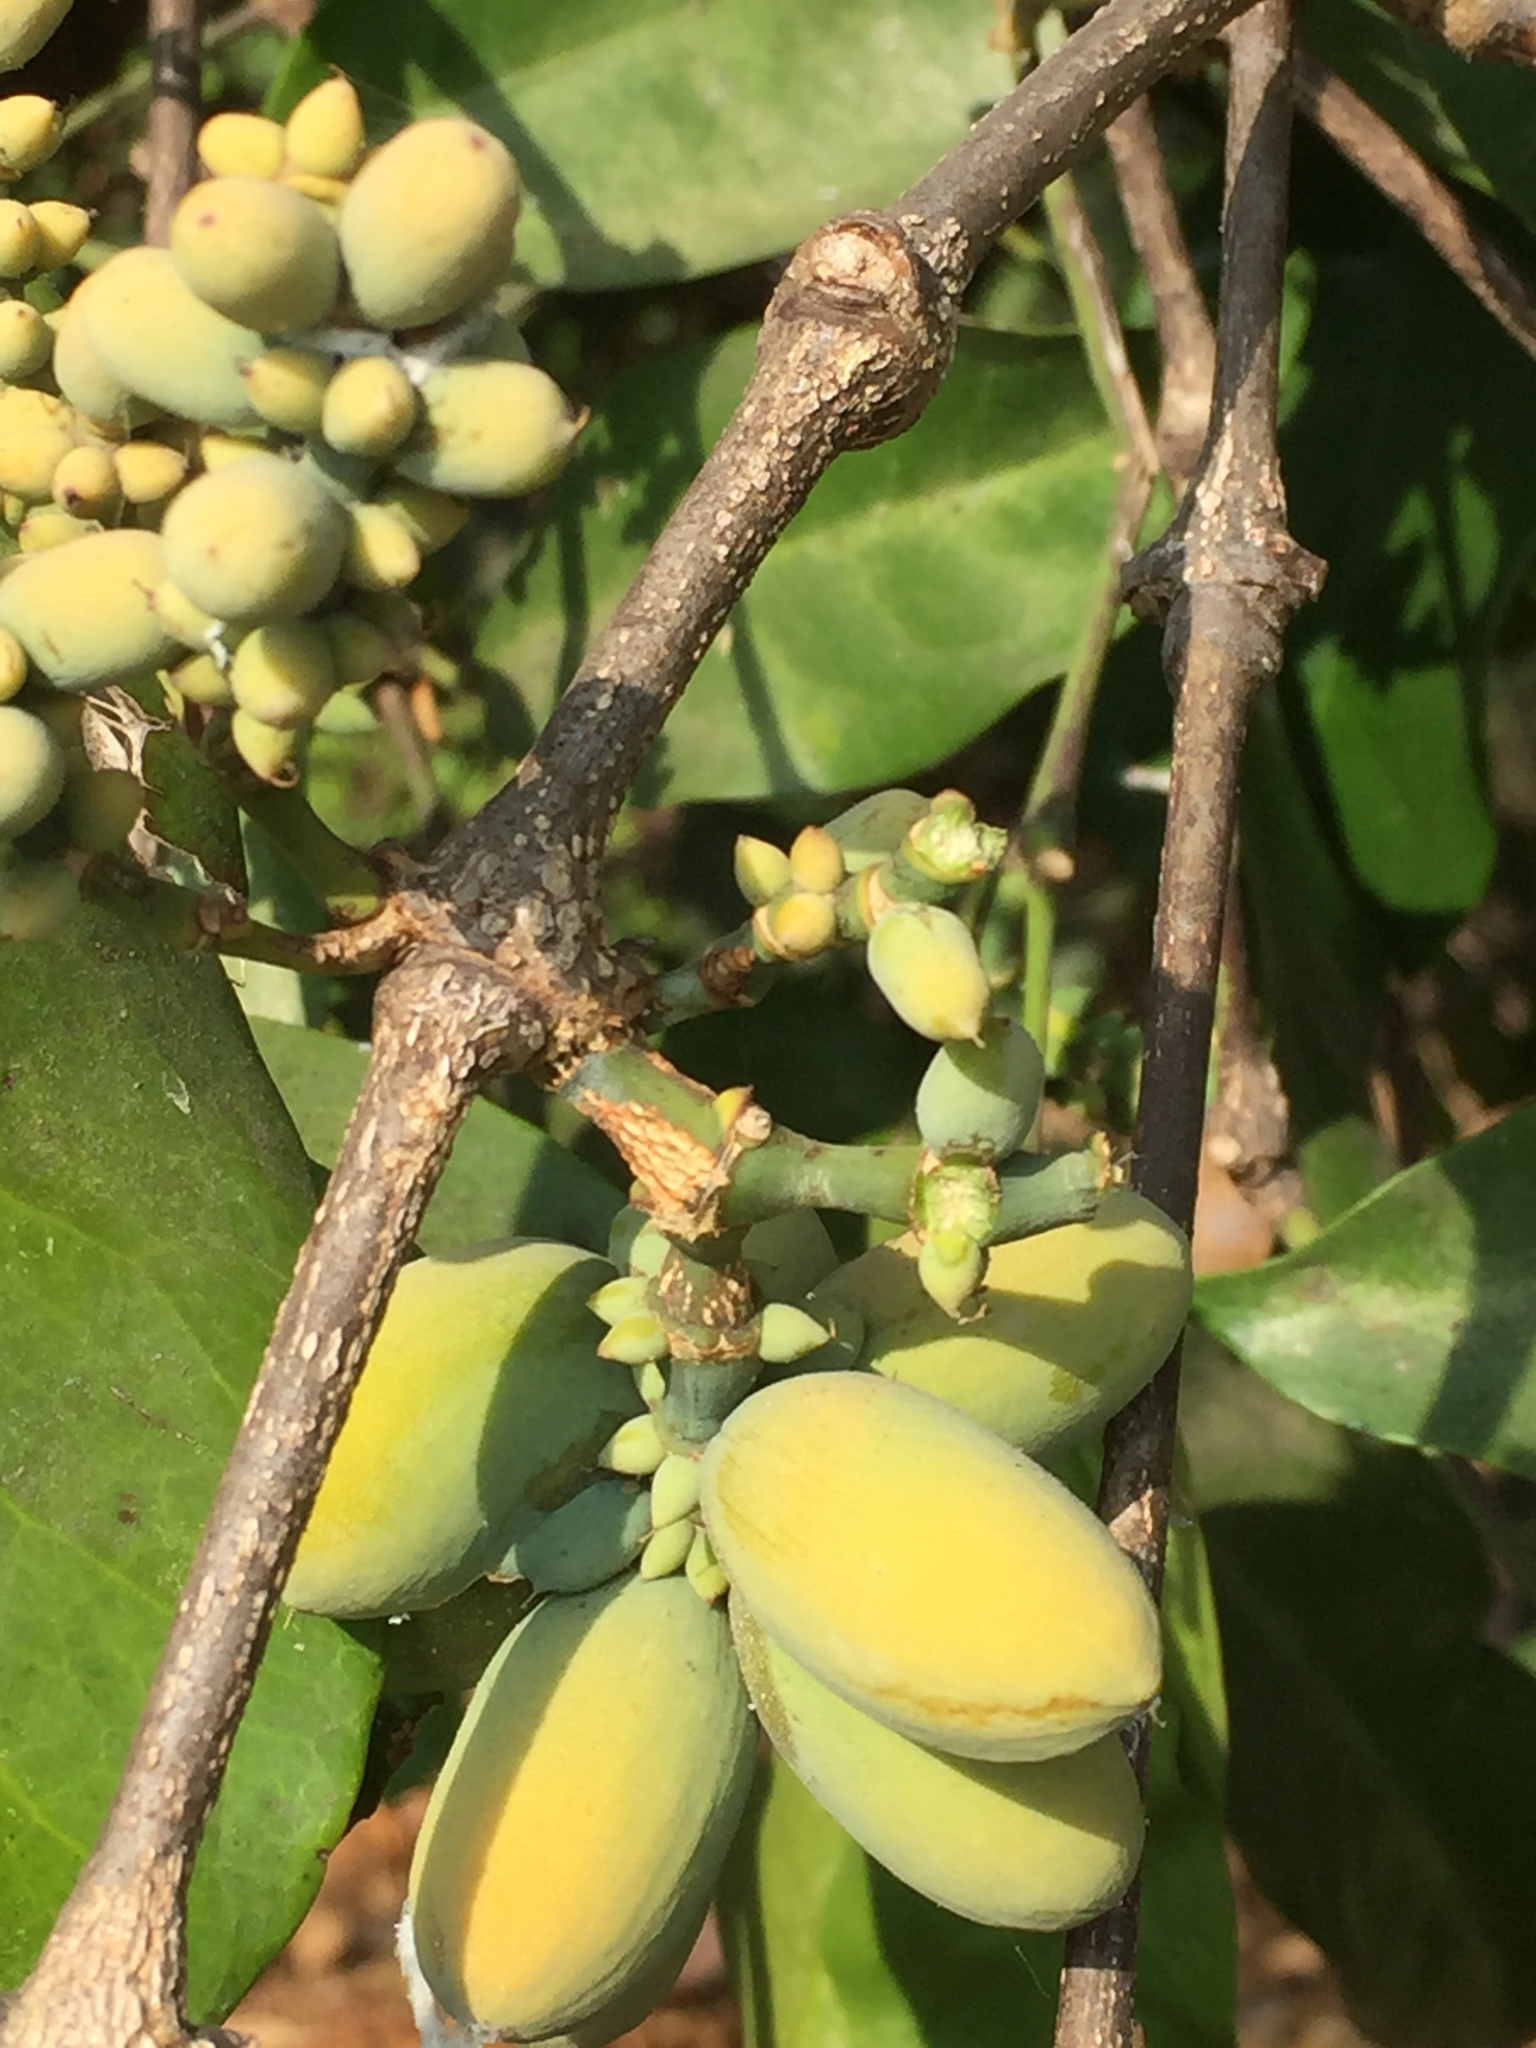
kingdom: Plantae
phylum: Tracheophyta
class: Magnoliopsida
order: Myrtales
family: Combretaceae
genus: Terminalia
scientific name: Terminalia catappa
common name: Tropical almond
